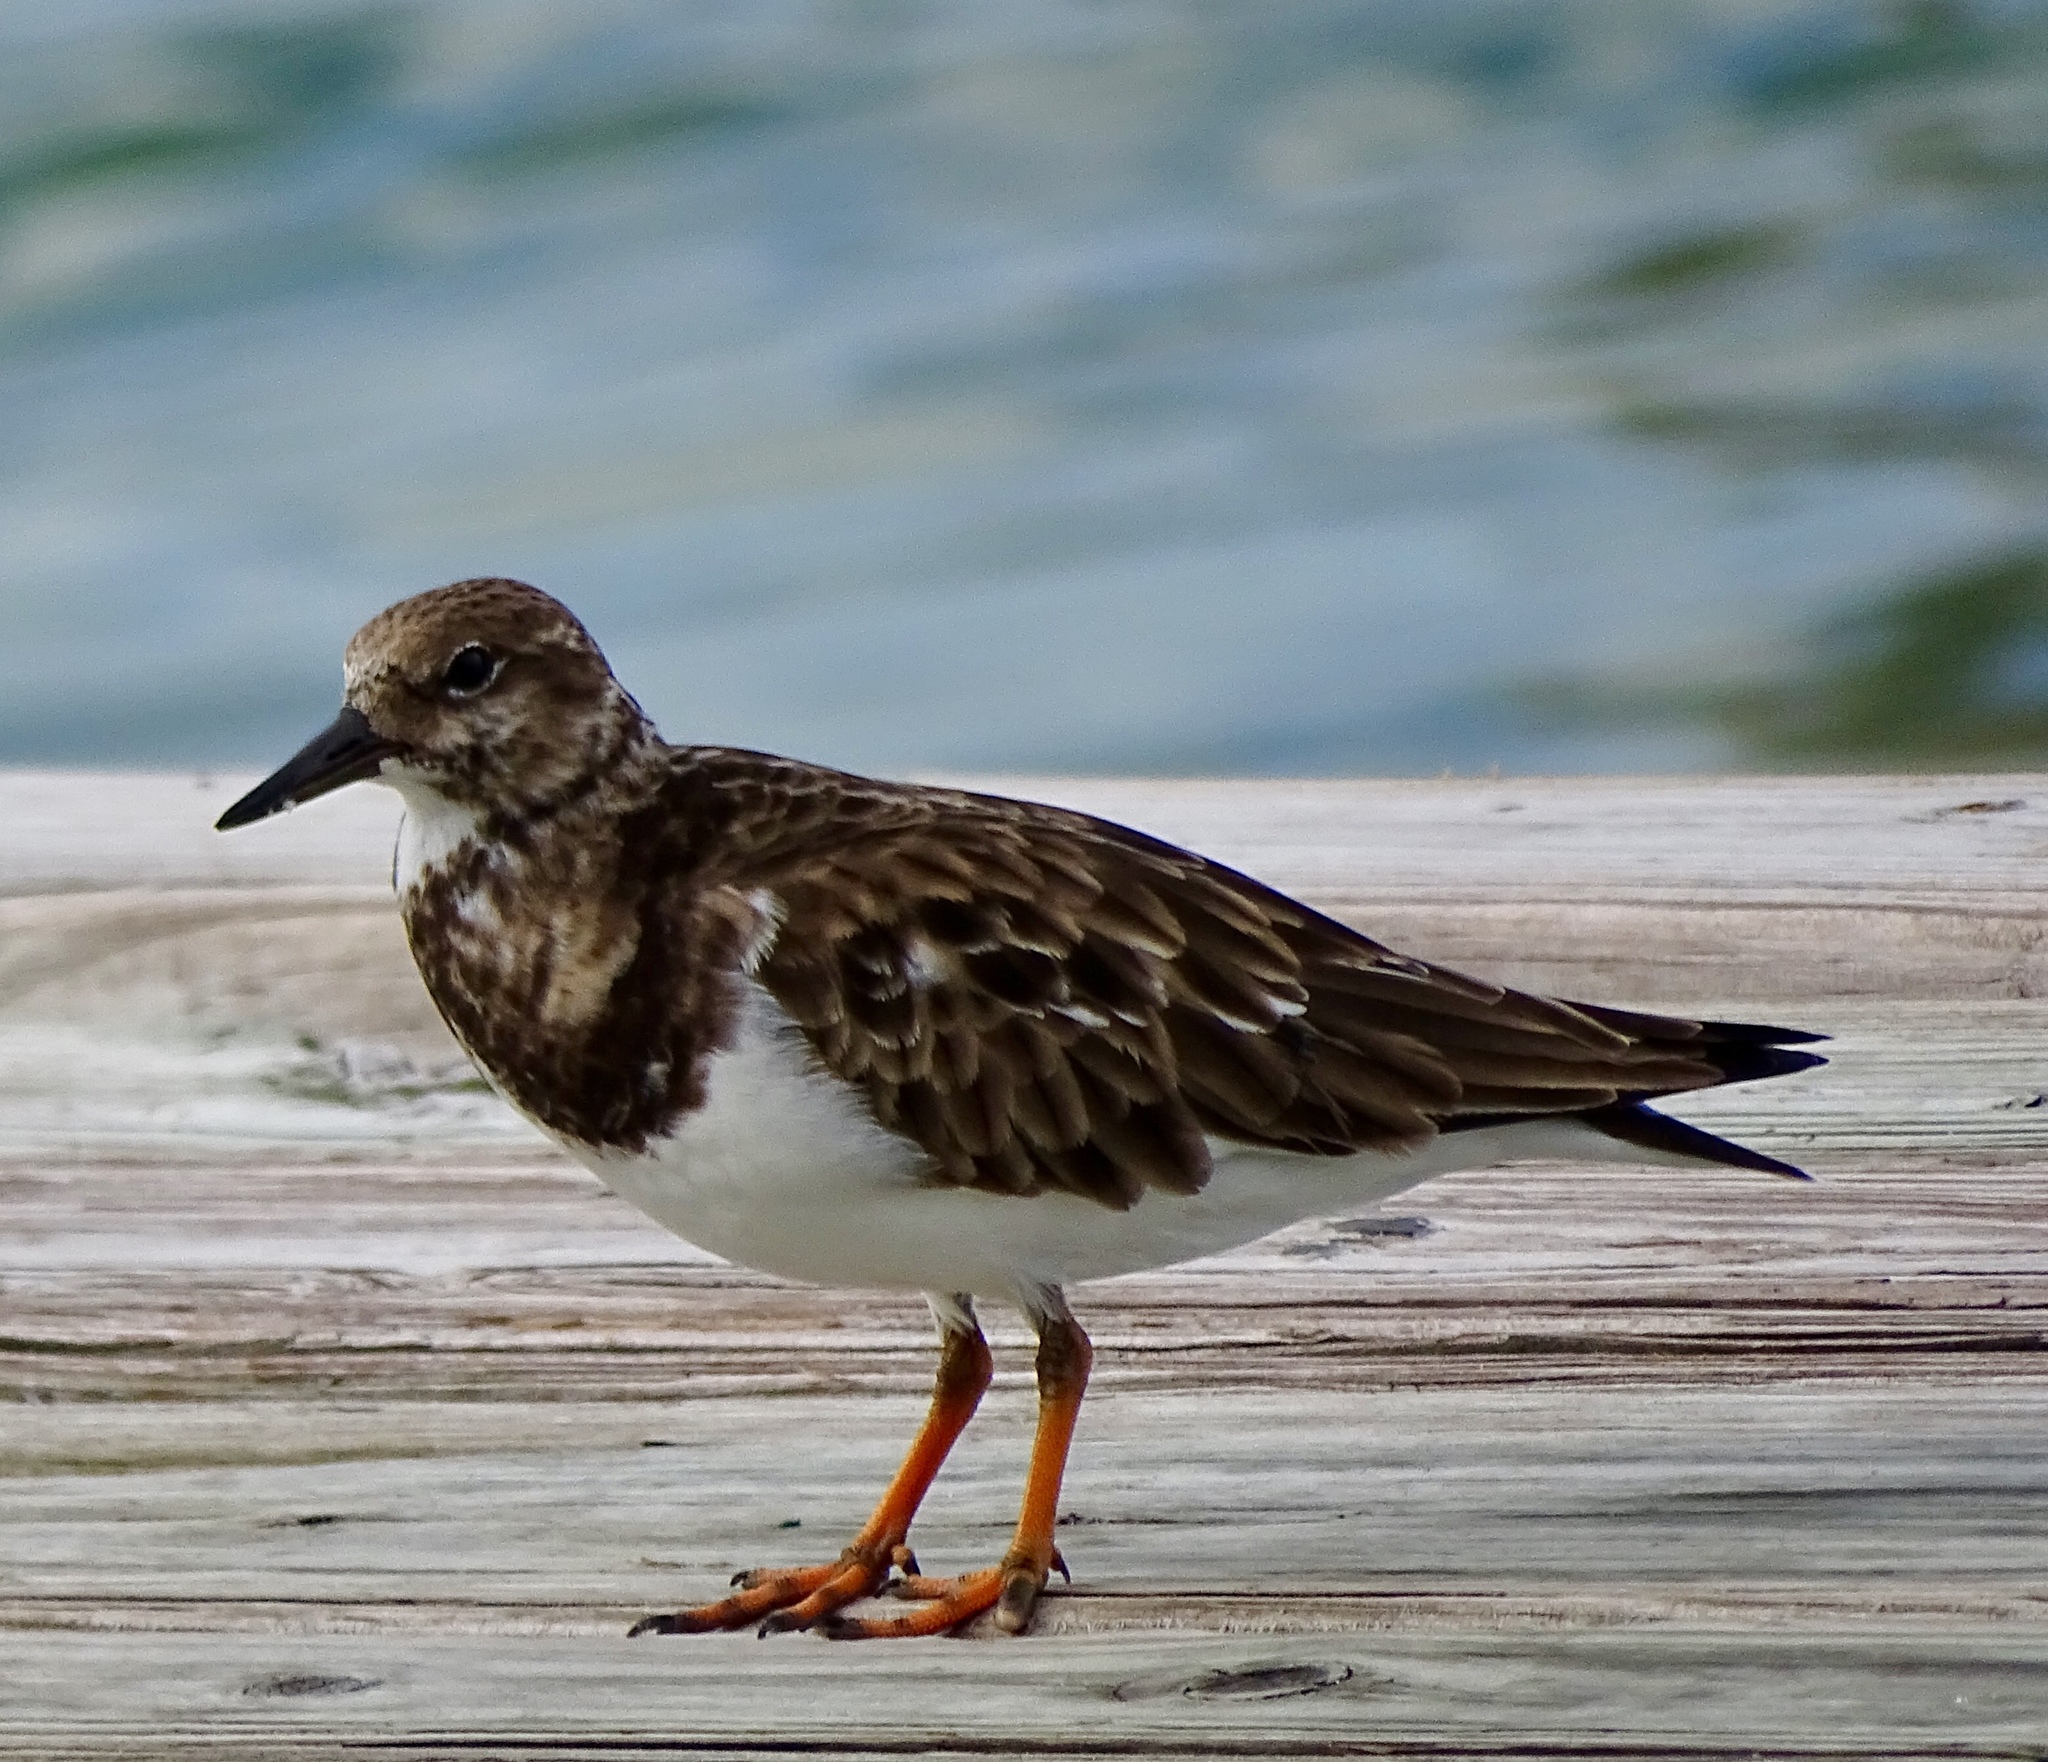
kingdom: Animalia
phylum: Chordata
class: Aves
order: Charadriiformes
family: Scolopacidae
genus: Arenaria
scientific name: Arenaria interpres
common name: Ruddy turnstone
